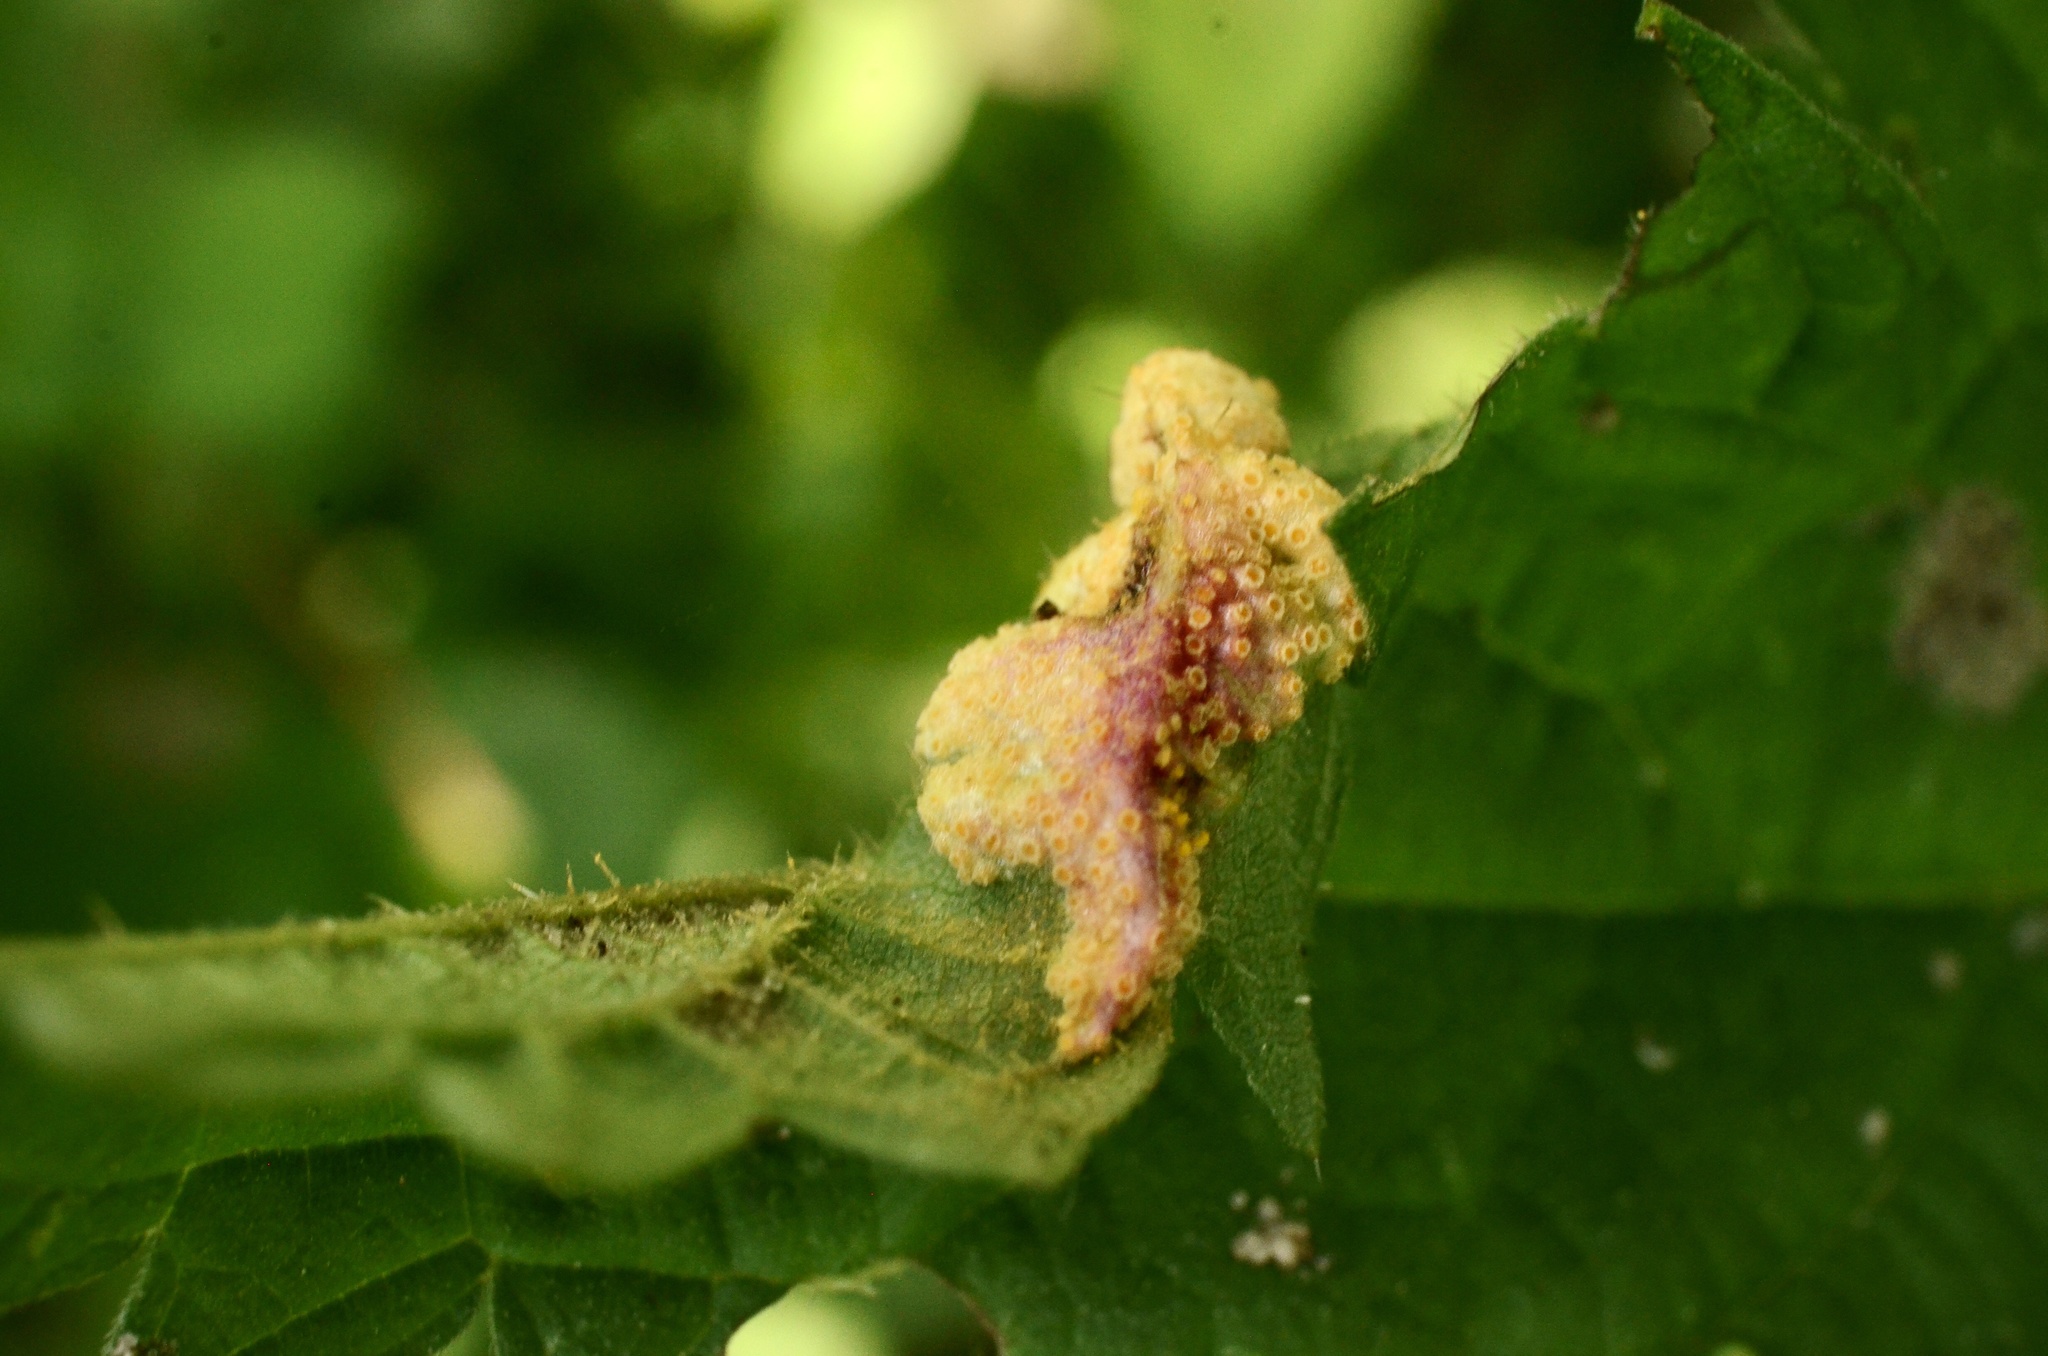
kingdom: Fungi
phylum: Basidiomycota
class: Pucciniomycetes
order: Pucciniales
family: Pucciniaceae
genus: Puccinia
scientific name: Puccinia urticata
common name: Nettle clustercup rust fungus
